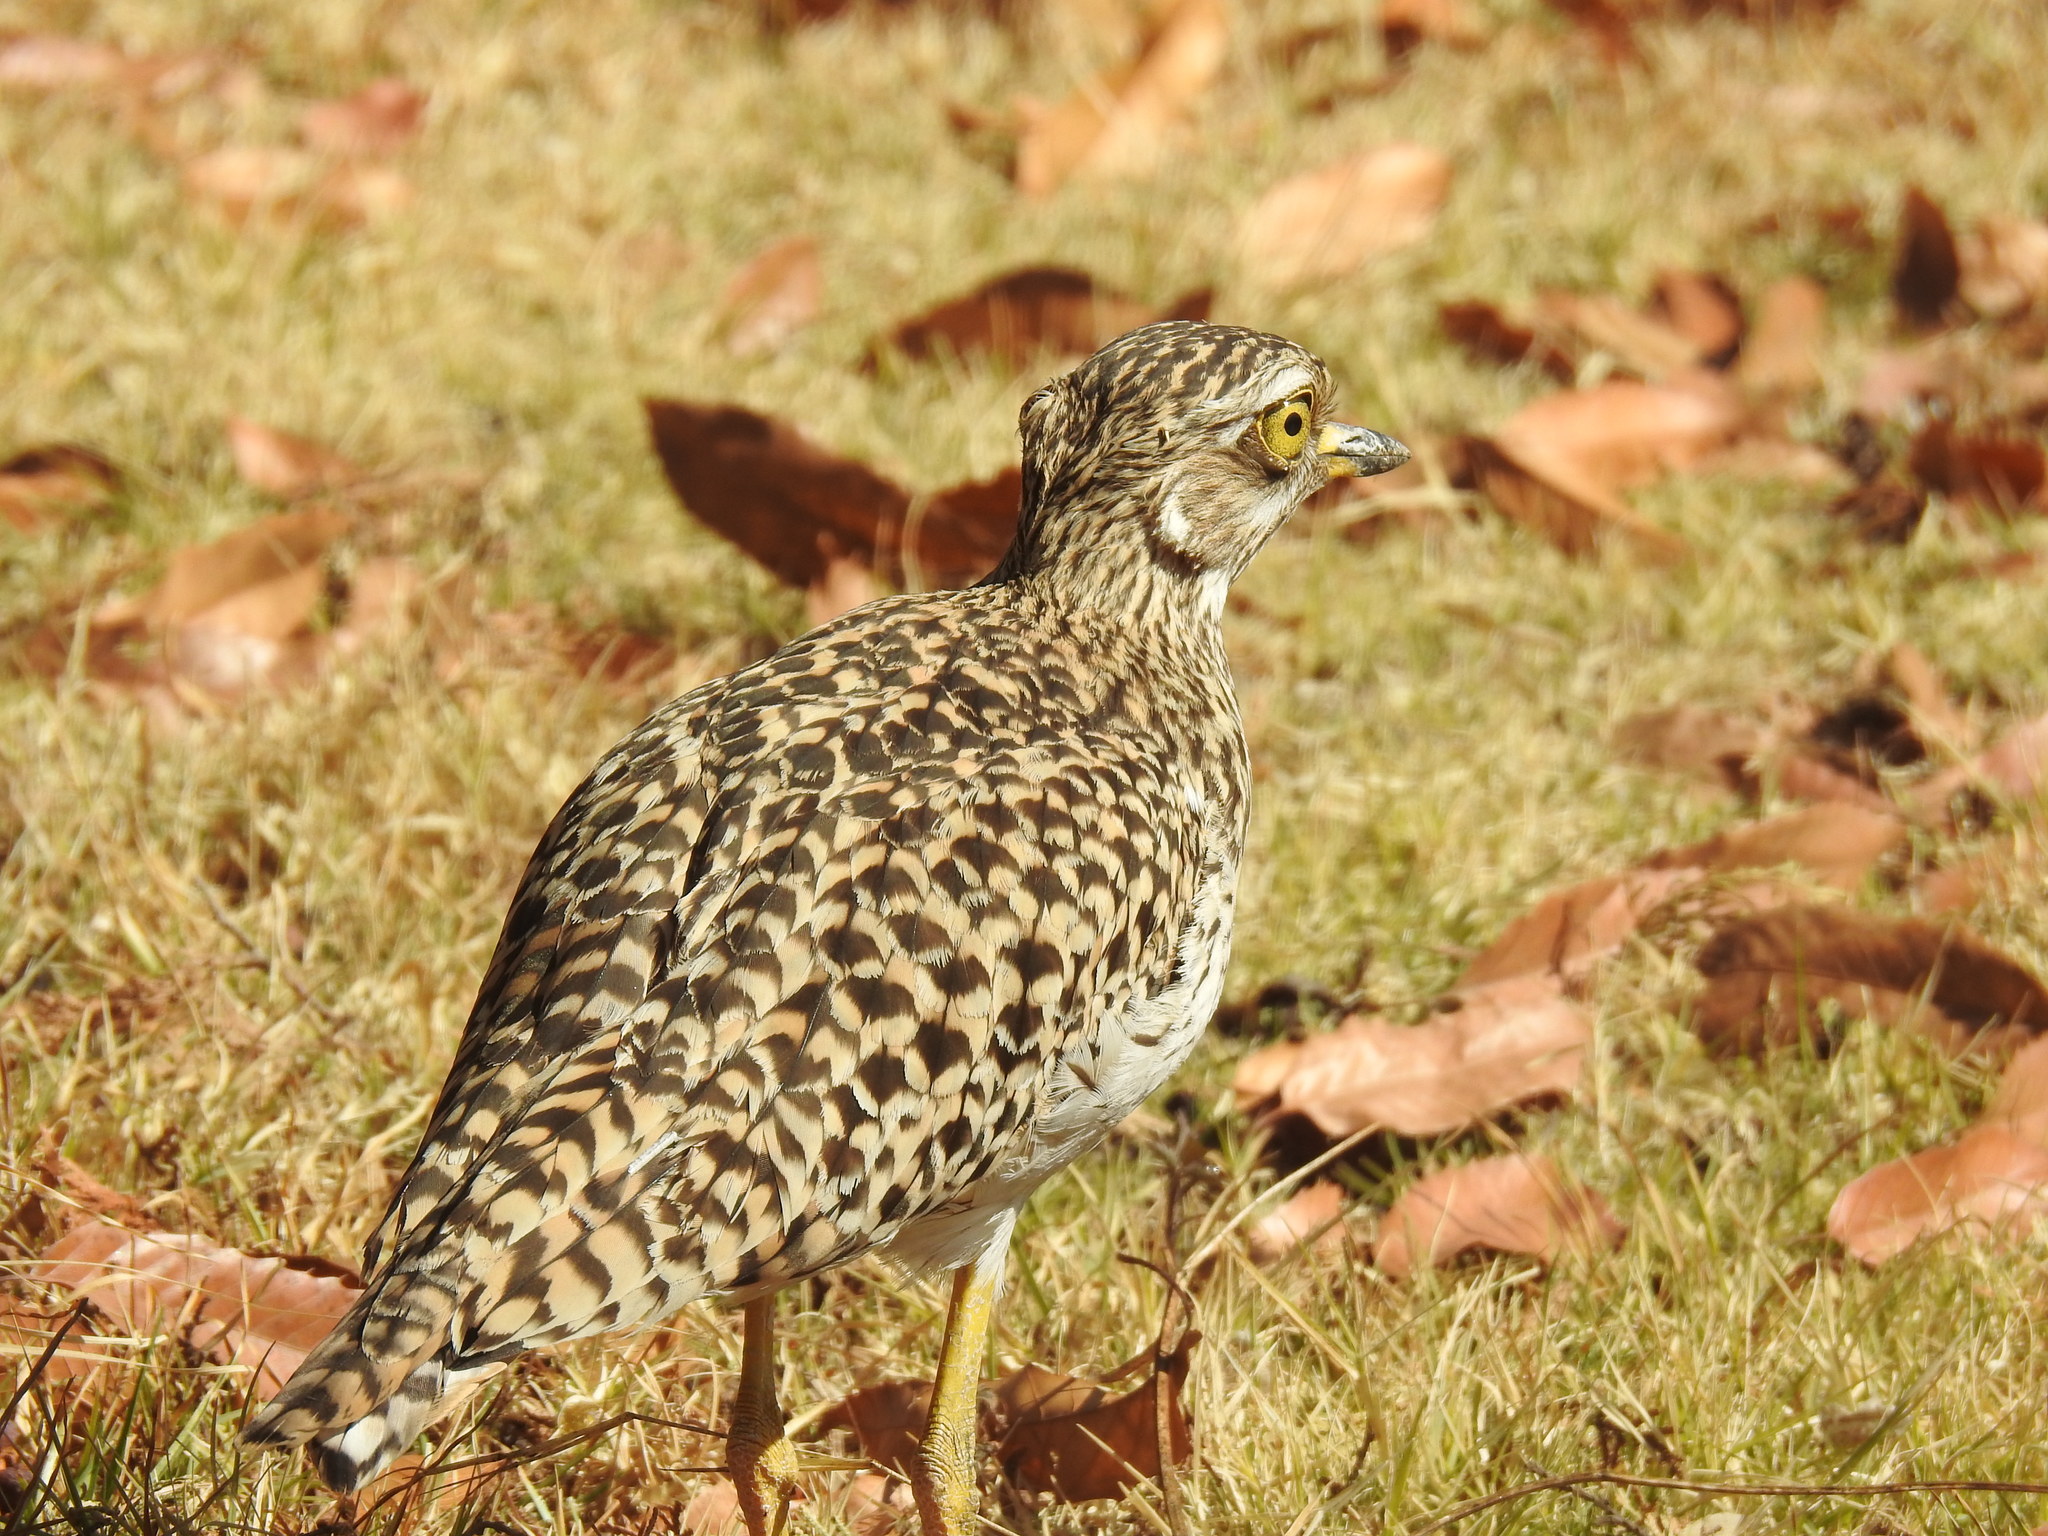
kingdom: Animalia
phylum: Chordata
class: Aves
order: Charadriiformes
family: Burhinidae
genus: Burhinus
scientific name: Burhinus capensis
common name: Spotted thick-knee
